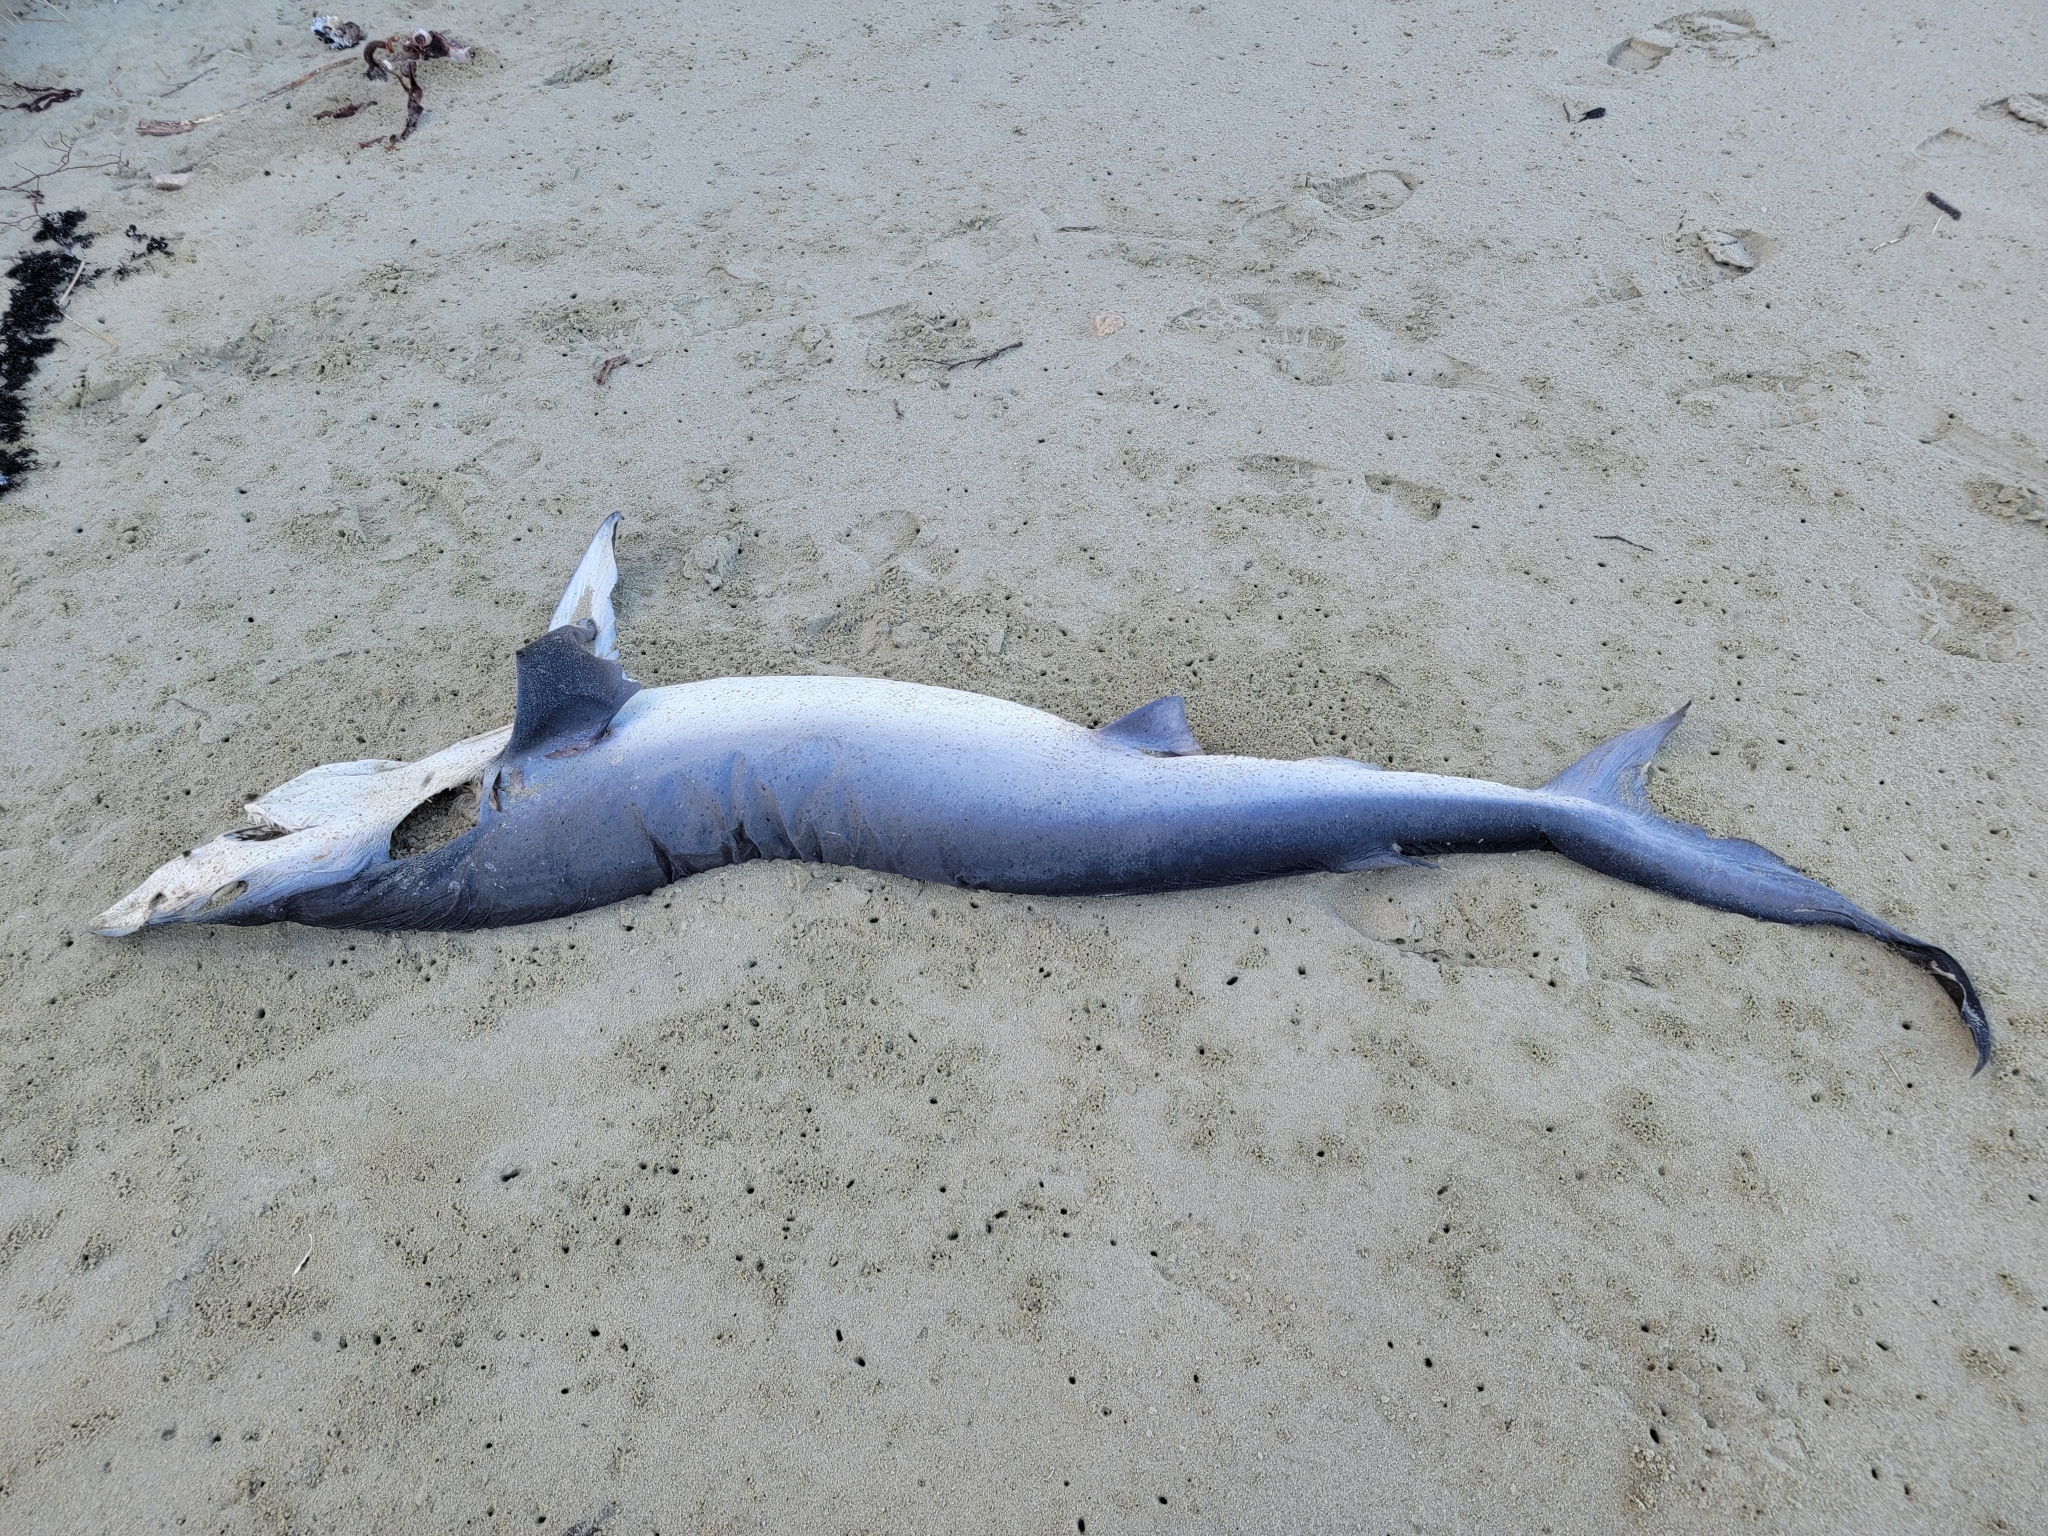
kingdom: Animalia
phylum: Chordata
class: Elasmobranchii
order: Carcharhiniformes
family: Carcharhinidae
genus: Prionace
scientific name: Prionace glauca
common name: Blue shark
